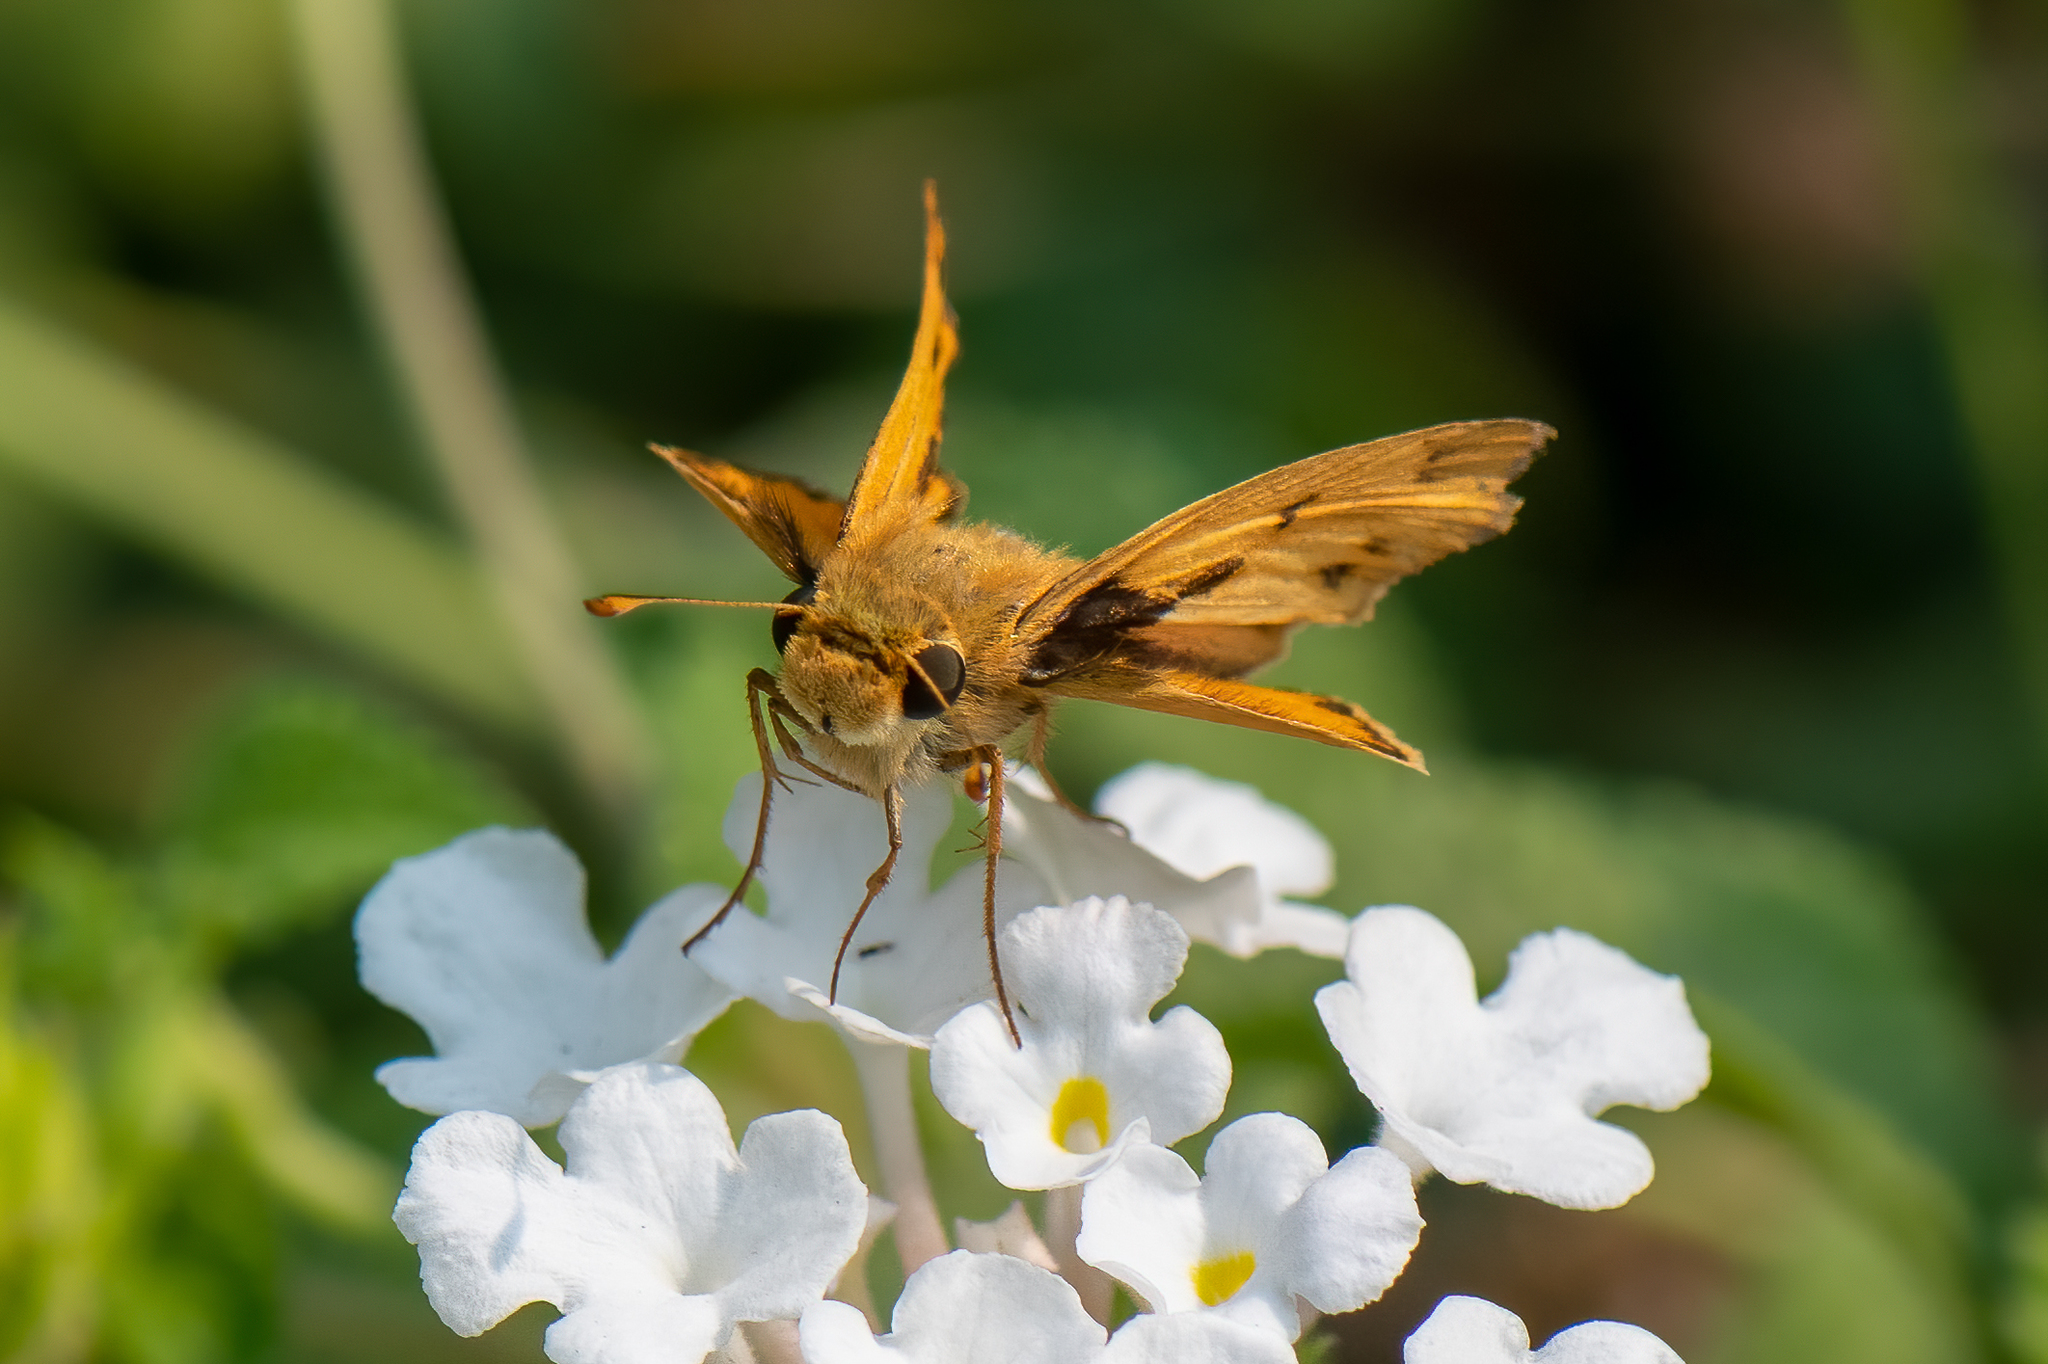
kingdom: Animalia
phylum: Arthropoda
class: Insecta
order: Lepidoptera
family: Hesperiidae
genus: Hylephila
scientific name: Hylephila phyleus
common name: Fiery skipper
